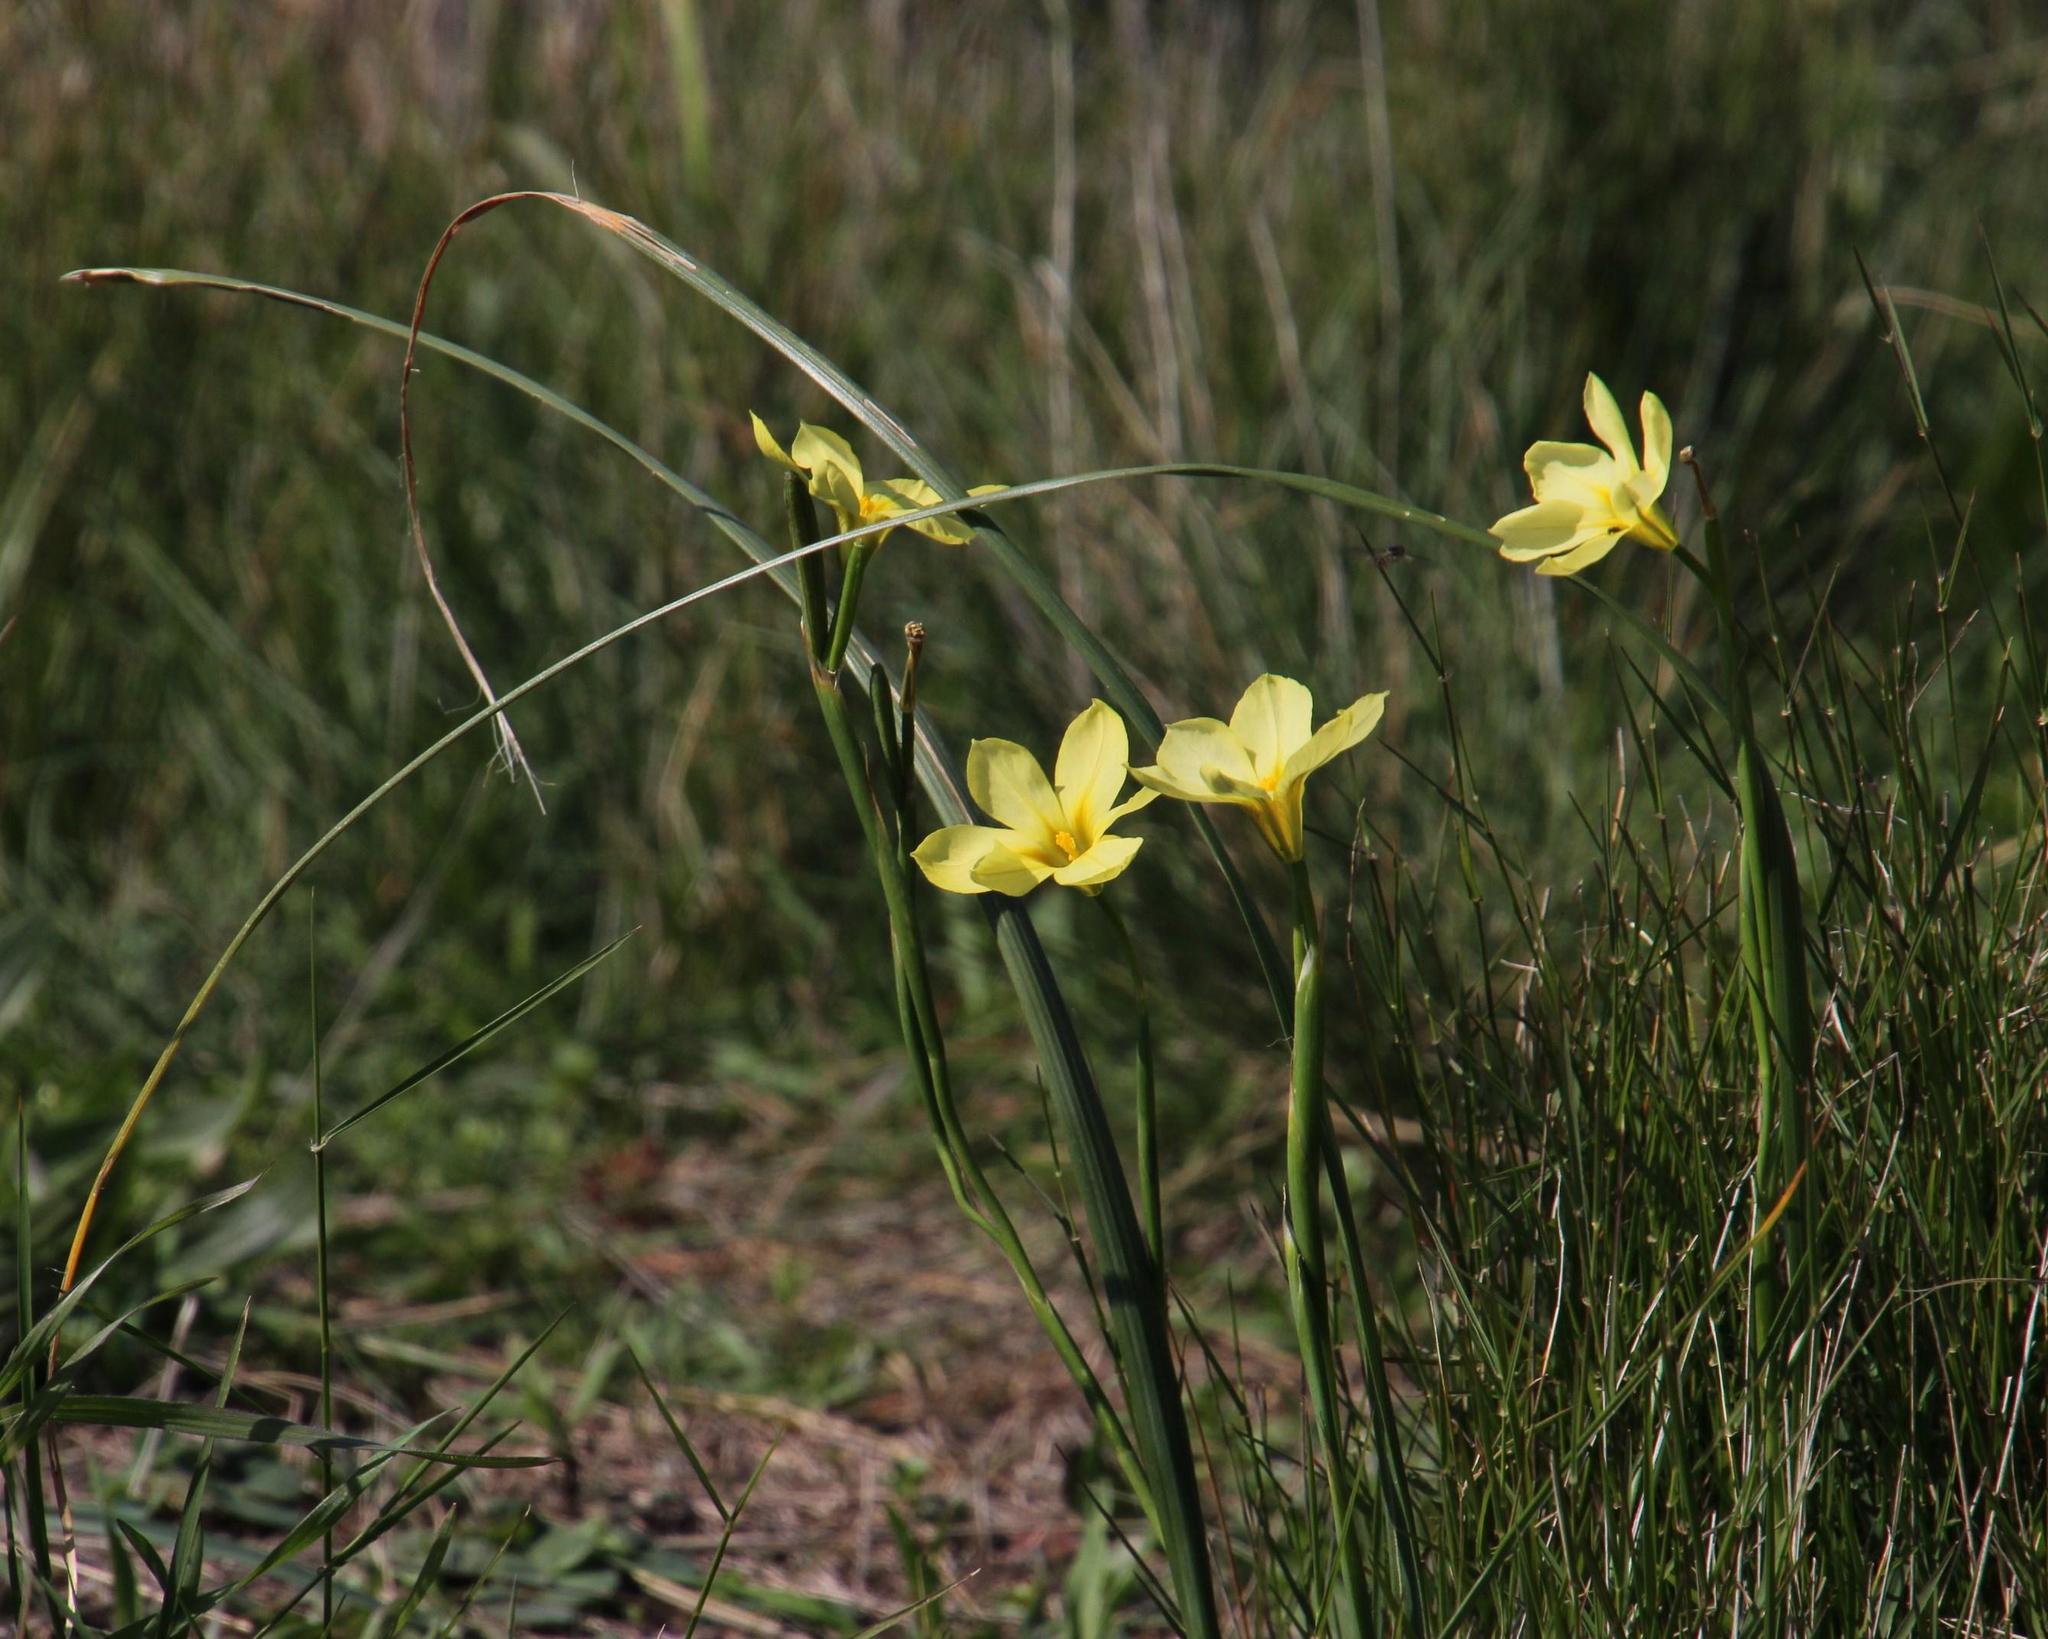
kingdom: Plantae
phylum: Tracheophyta
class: Liliopsida
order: Asparagales
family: Iridaceae
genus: Moraea
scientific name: Moraea ochroleuca
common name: Red tulp
